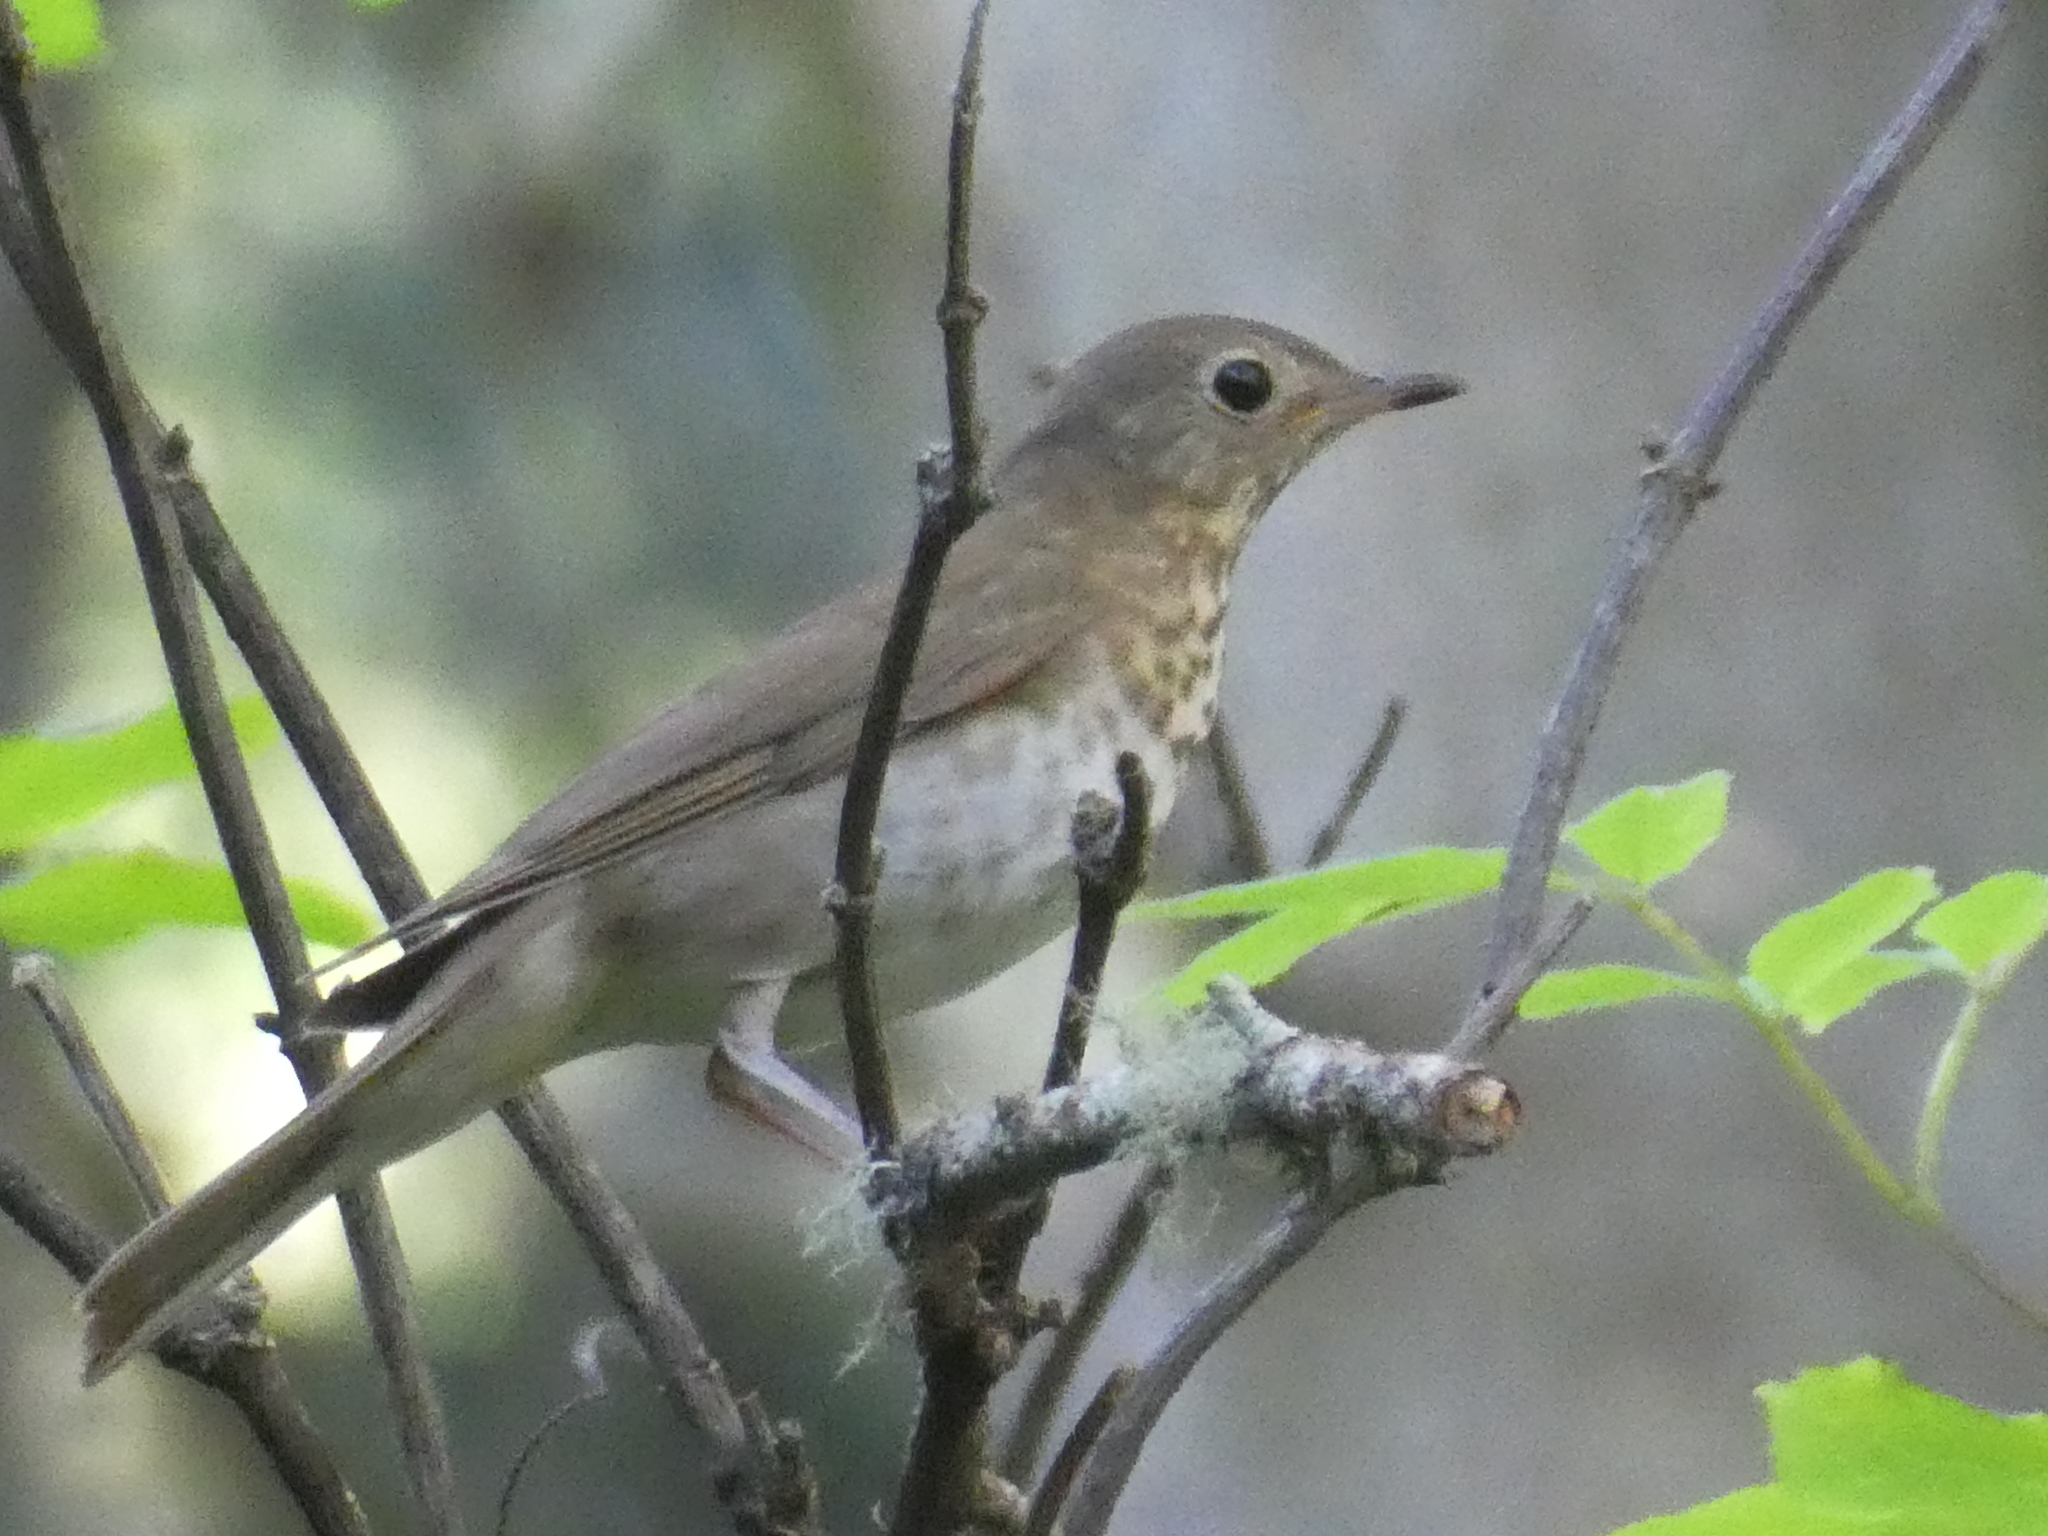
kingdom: Animalia
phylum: Chordata
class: Aves
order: Passeriformes
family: Turdidae
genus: Catharus
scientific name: Catharus ustulatus
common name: Swainson's thrush
